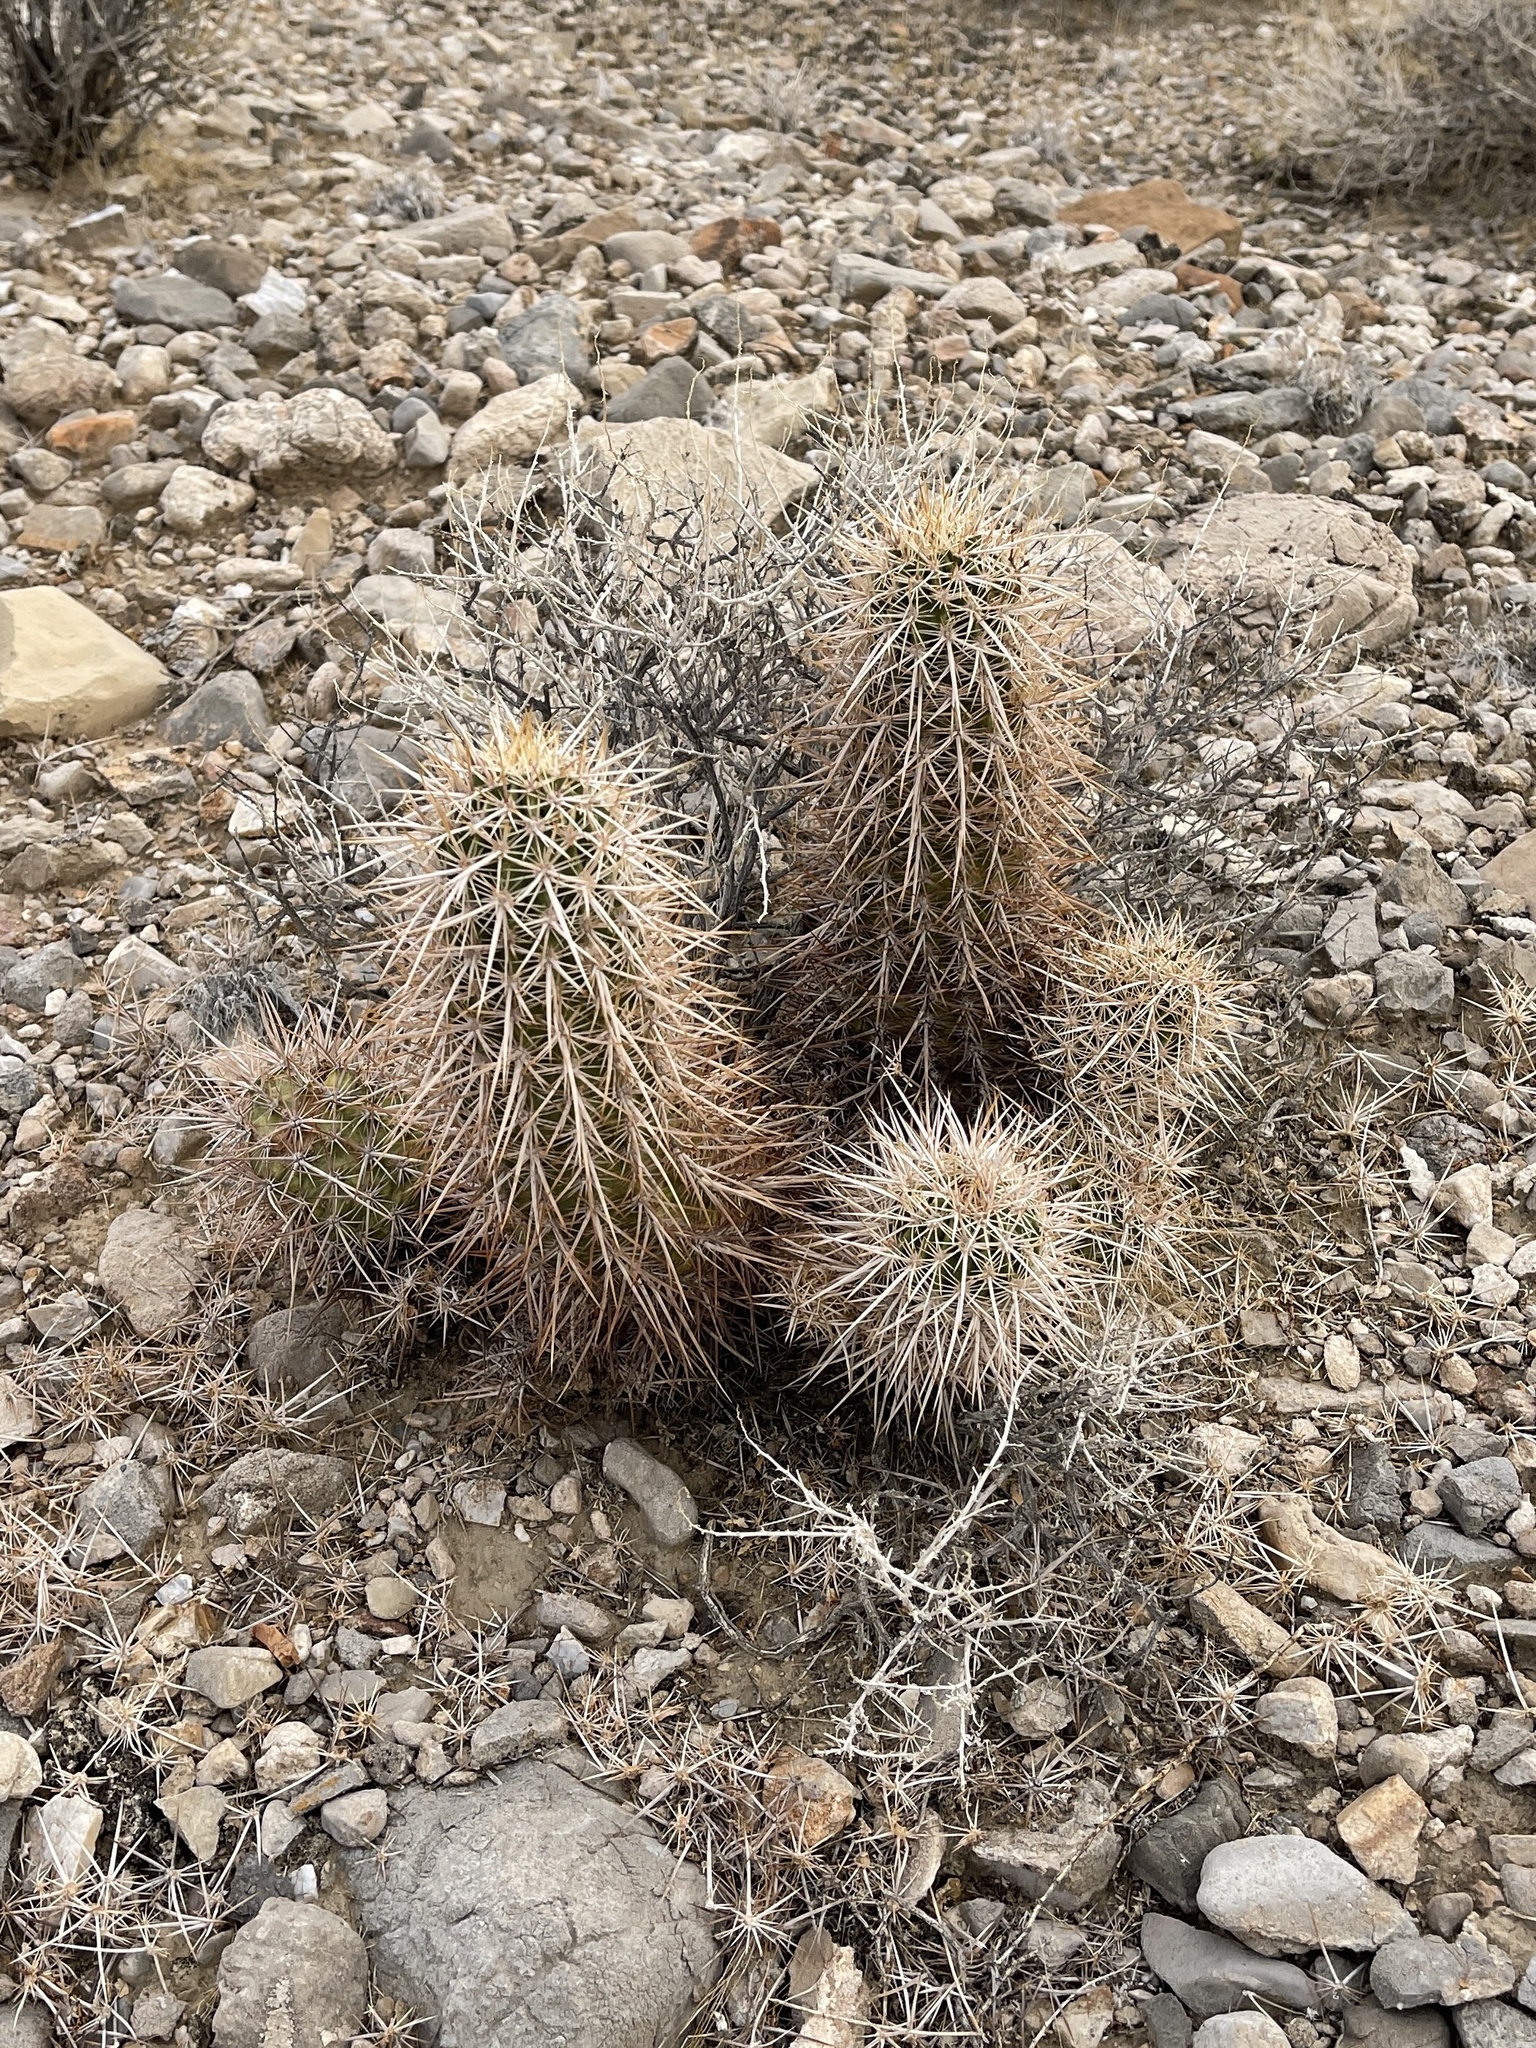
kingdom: Plantae
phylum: Tracheophyta
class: Magnoliopsida
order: Caryophyllales
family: Cactaceae
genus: Echinocereus
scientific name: Echinocereus engelmannii
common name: Engelmann's hedgehog cactus
